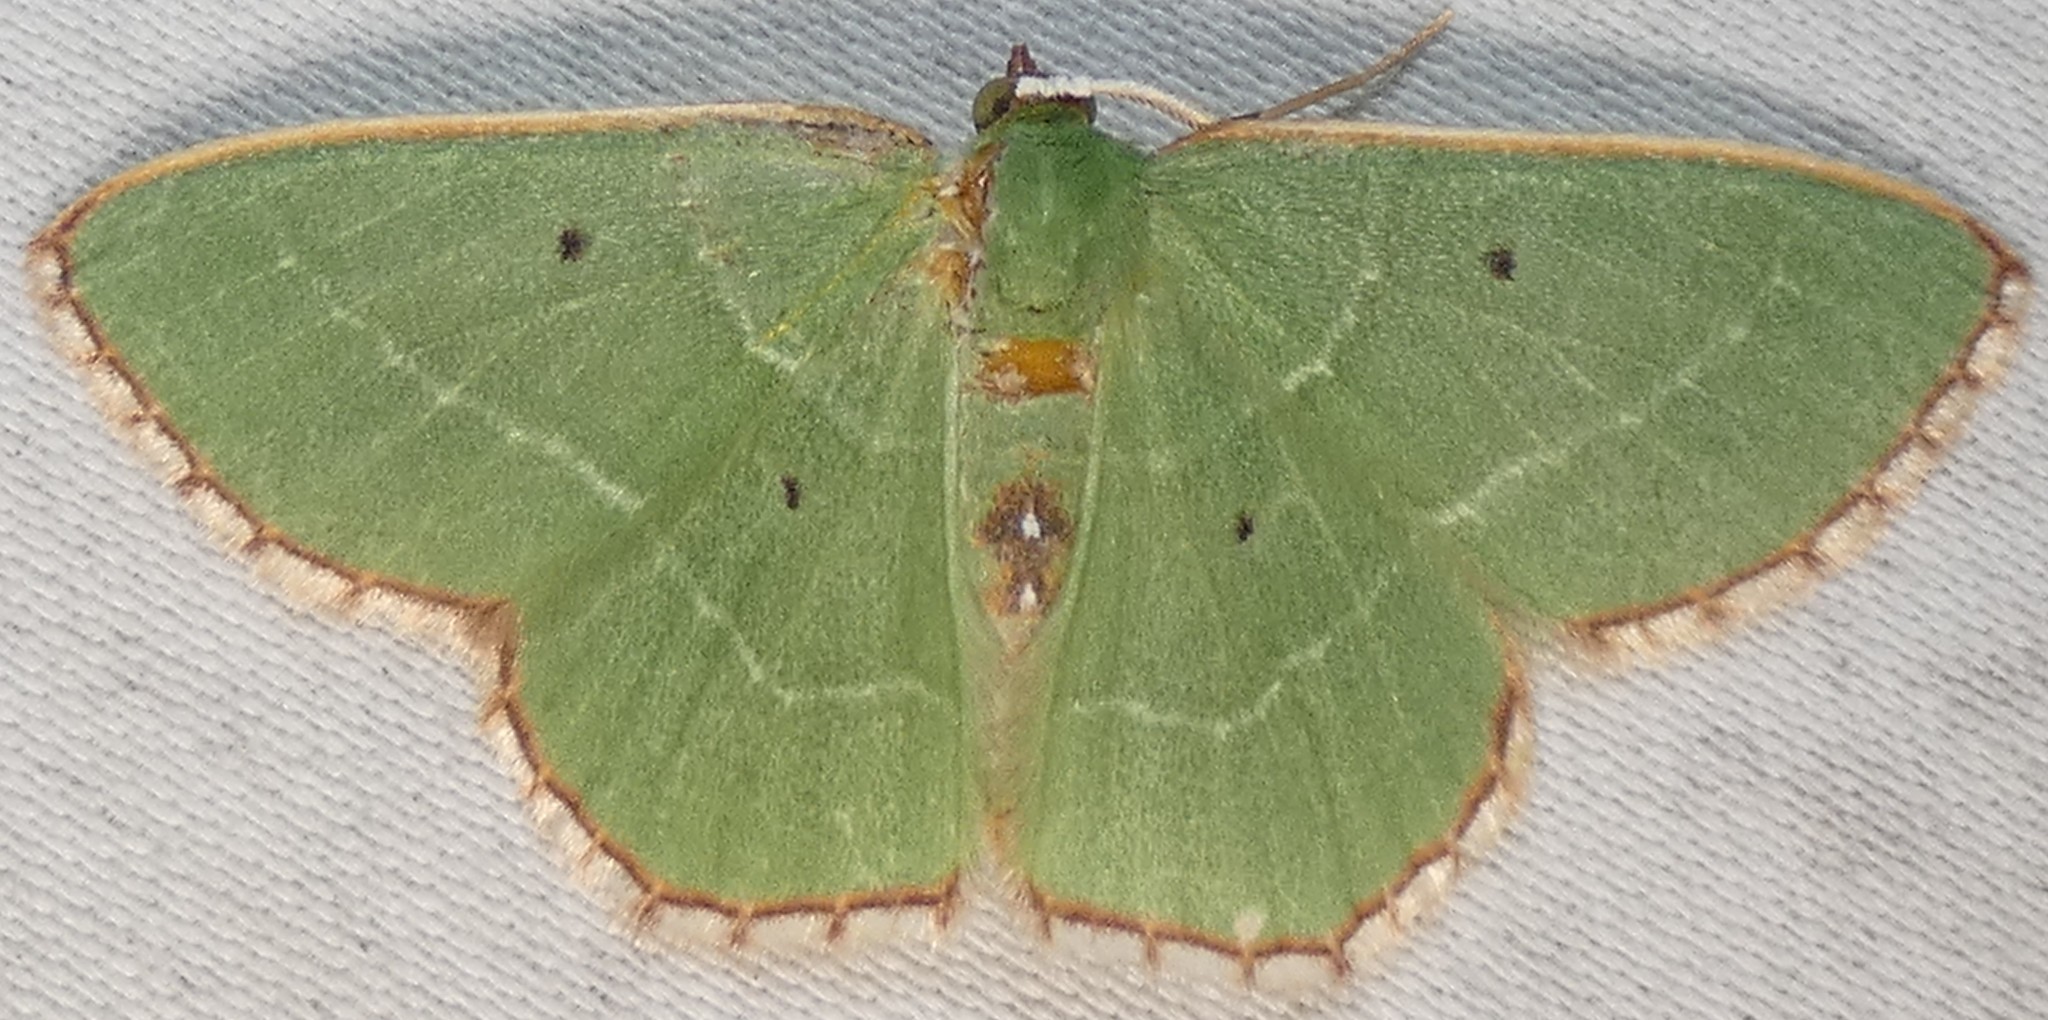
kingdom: Animalia
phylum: Arthropoda
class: Insecta
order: Lepidoptera
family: Geometridae
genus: Nemoria
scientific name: Nemoria saturiba
